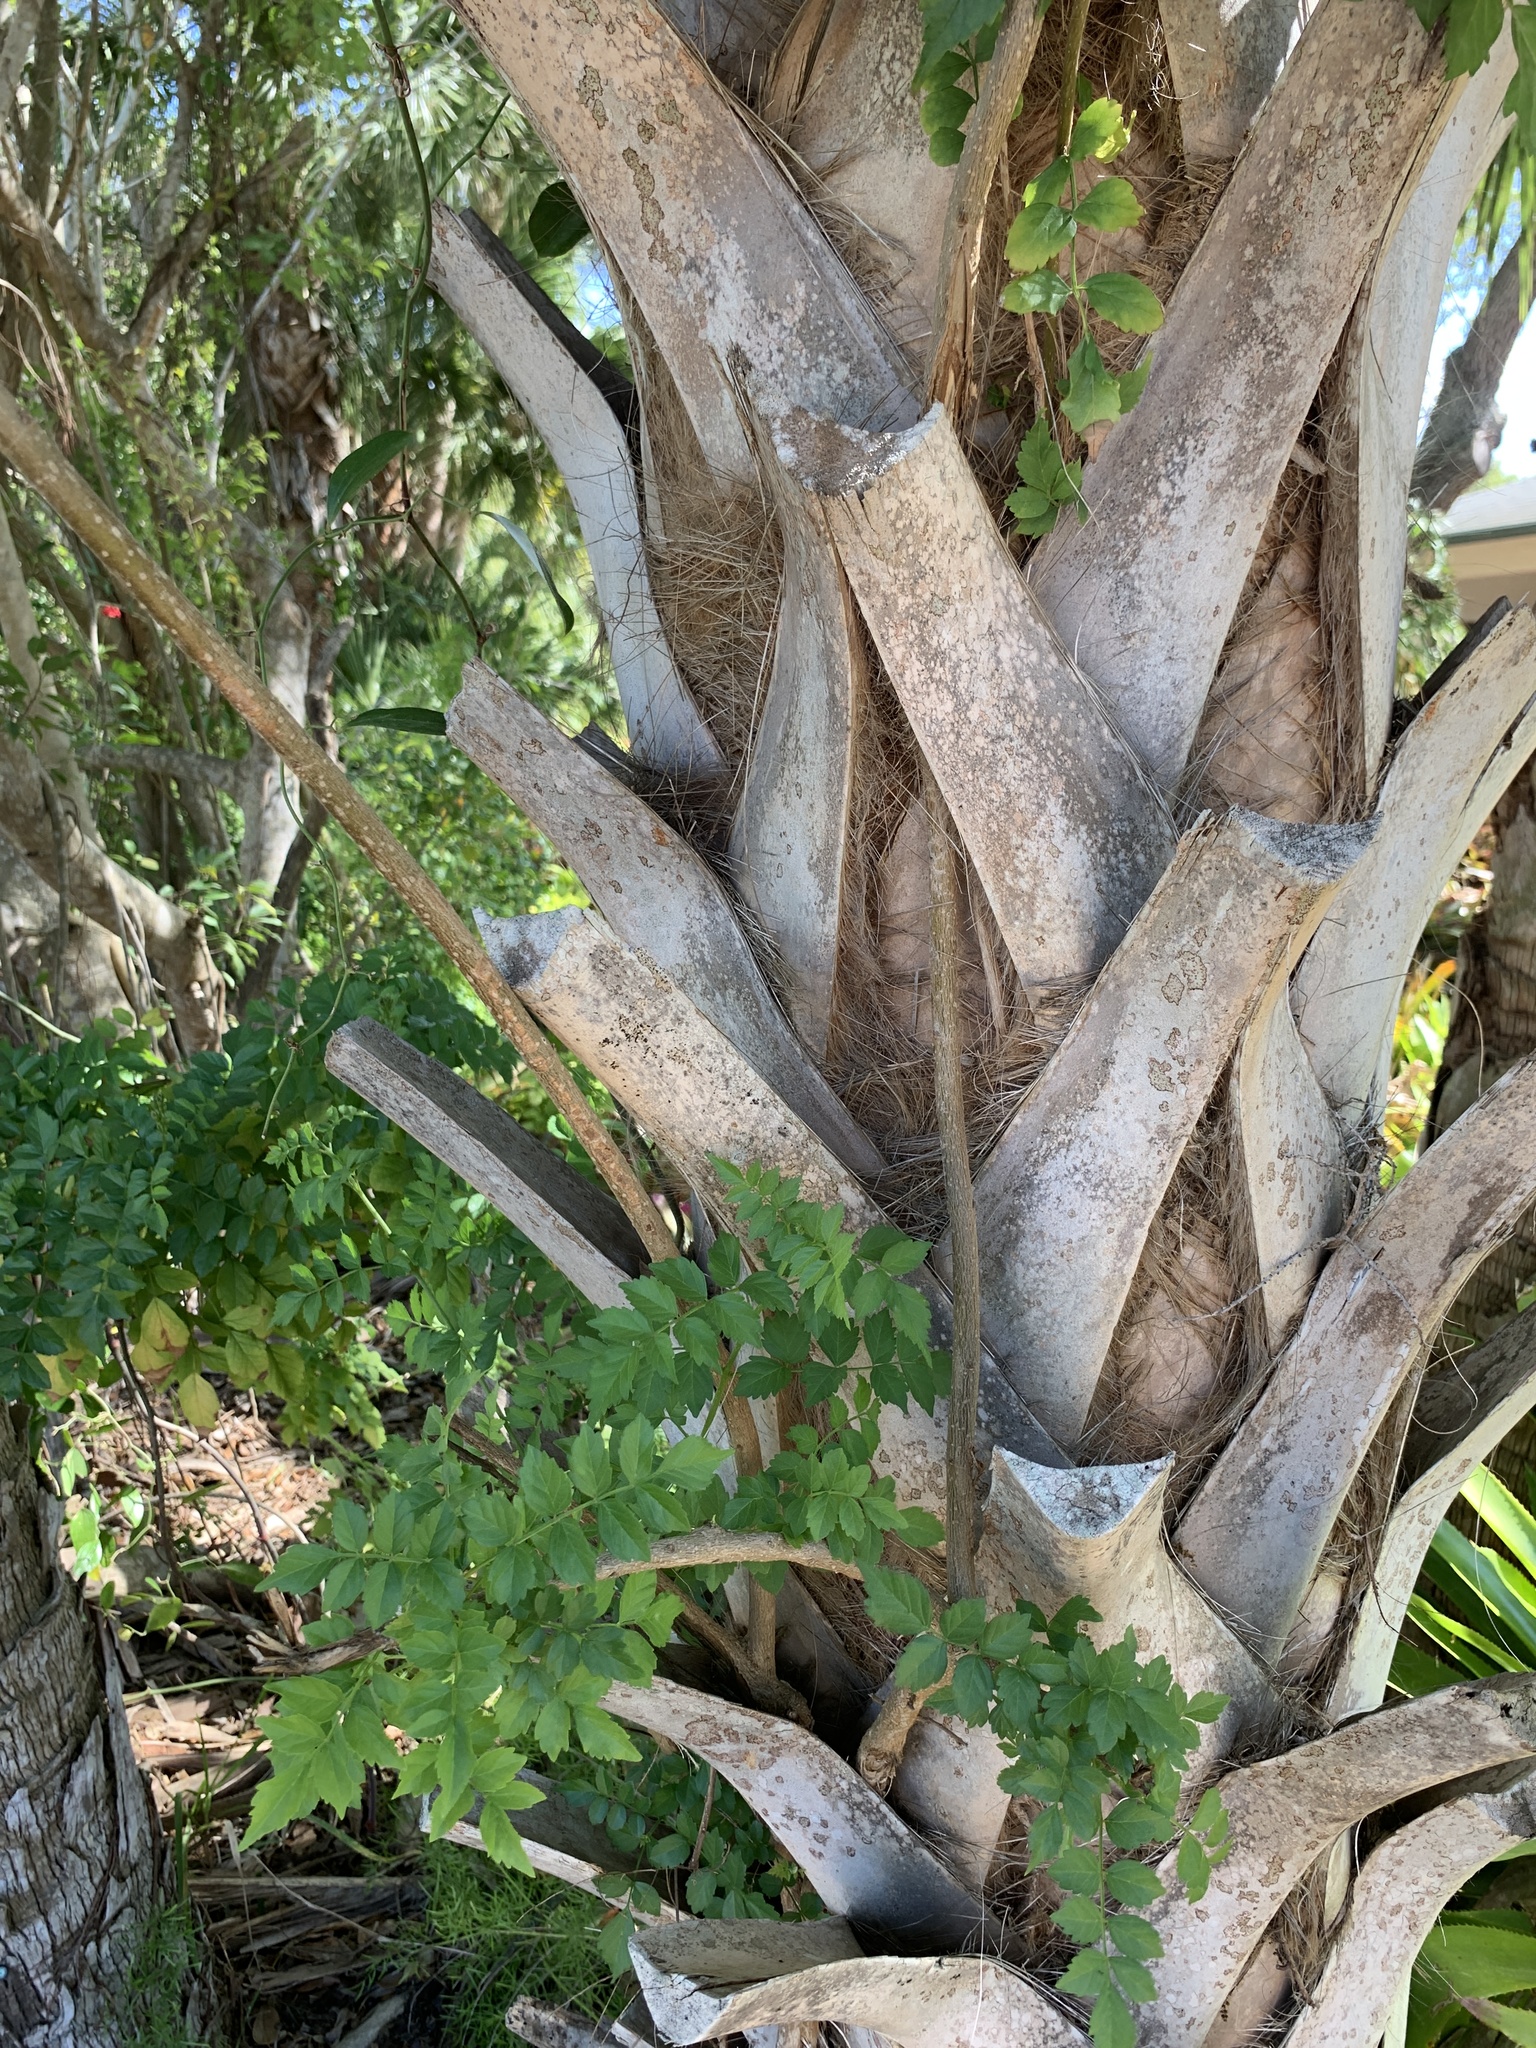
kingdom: Plantae
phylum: Tracheophyta
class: Magnoliopsida
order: Lamiales
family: Bignoniaceae
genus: Campsis
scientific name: Campsis radicans
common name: Trumpet-creeper
